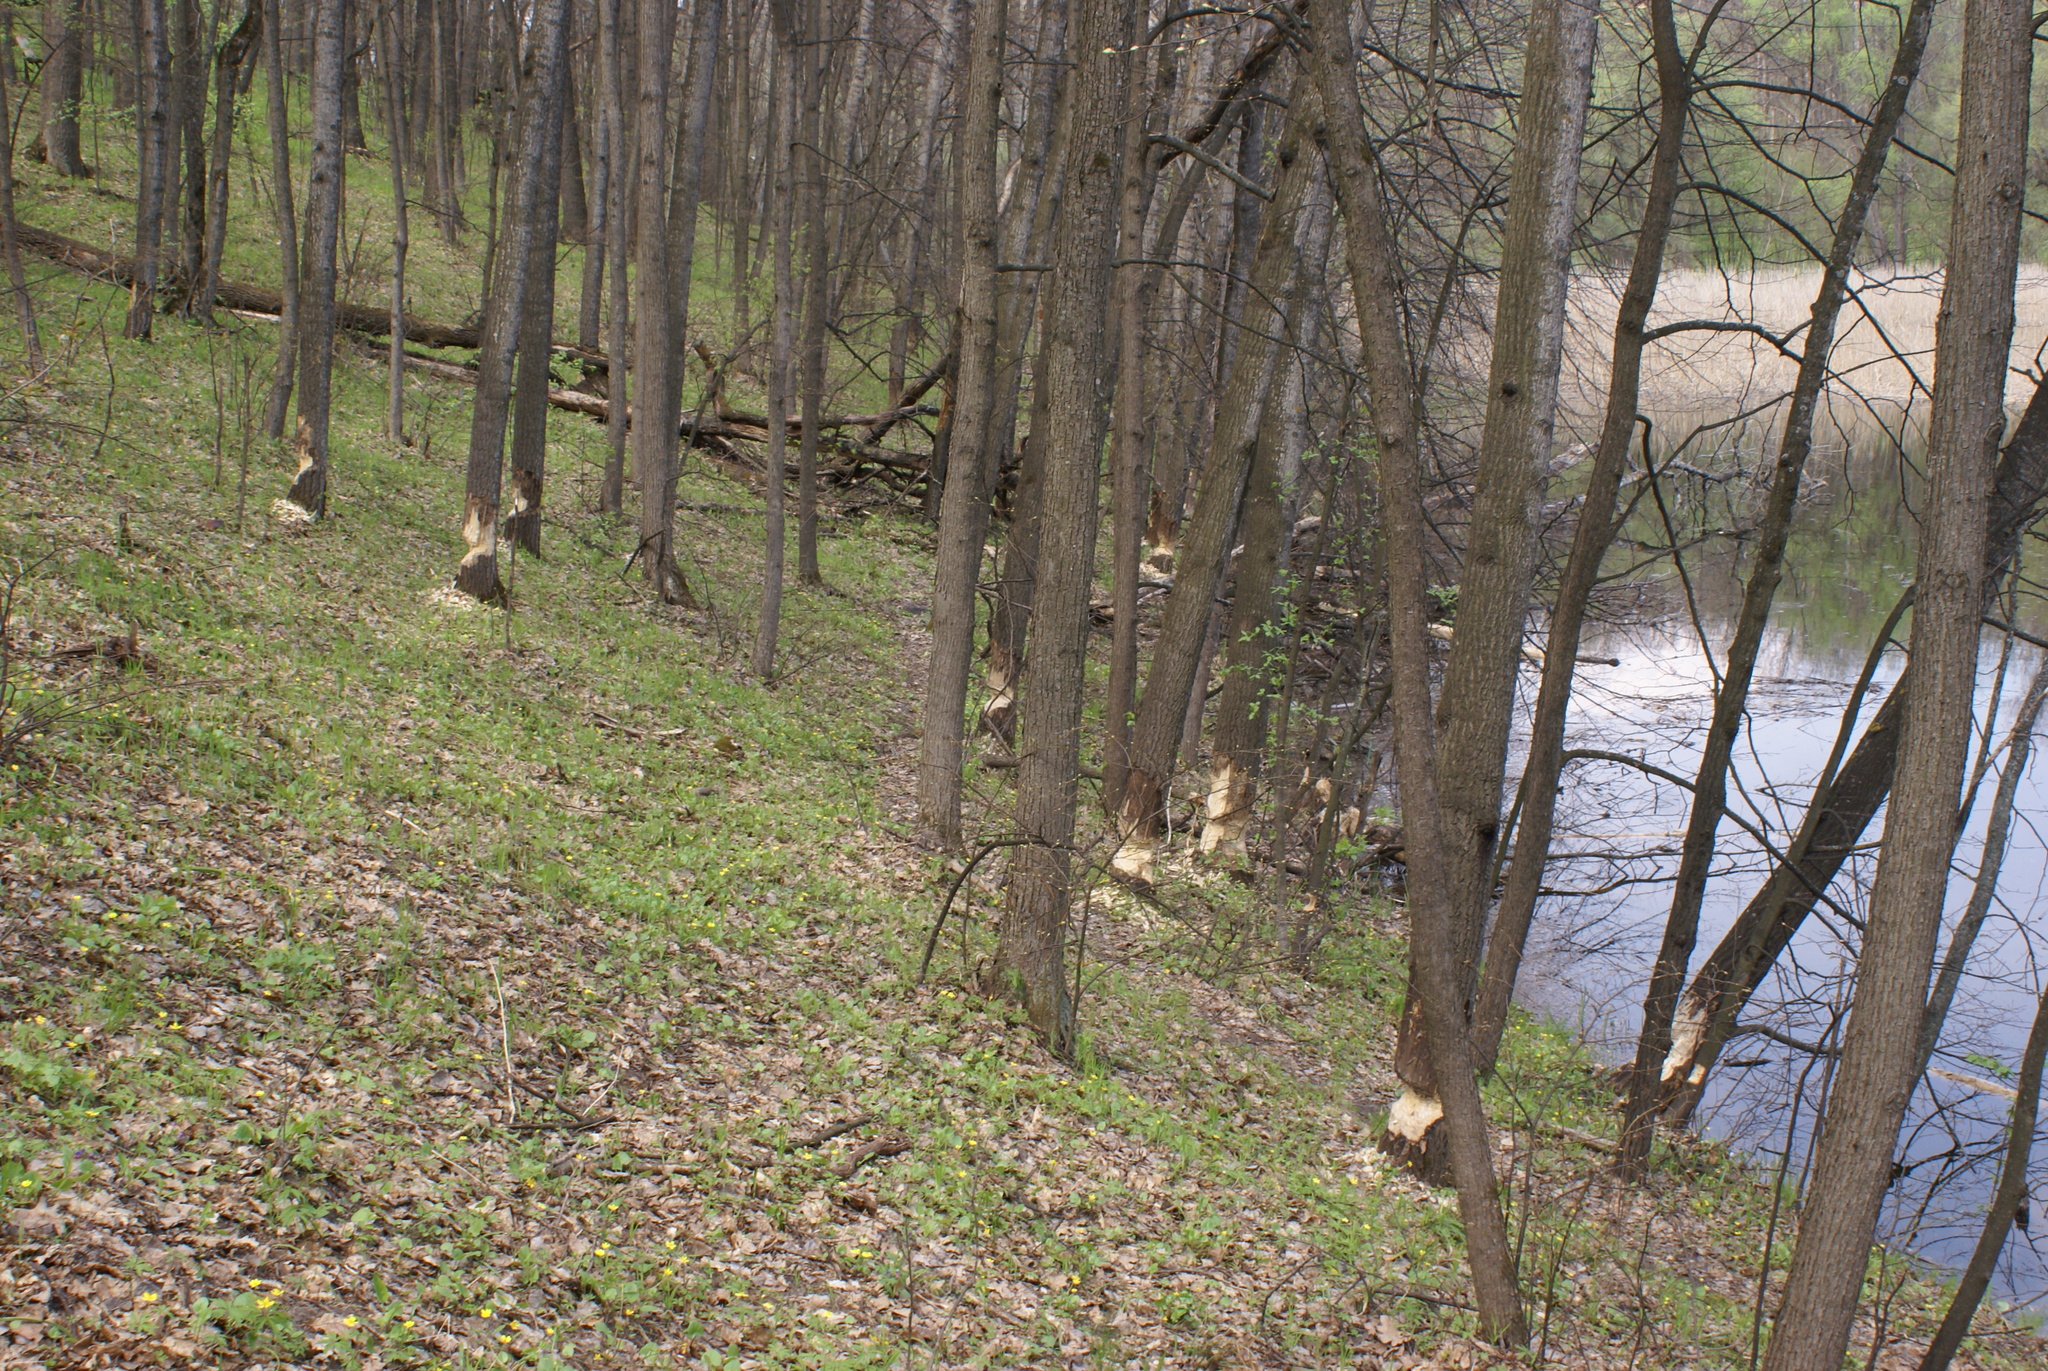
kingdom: Animalia
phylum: Chordata
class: Mammalia
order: Rodentia
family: Castoridae
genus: Castor
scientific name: Castor fiber
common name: Eurasian beaver
